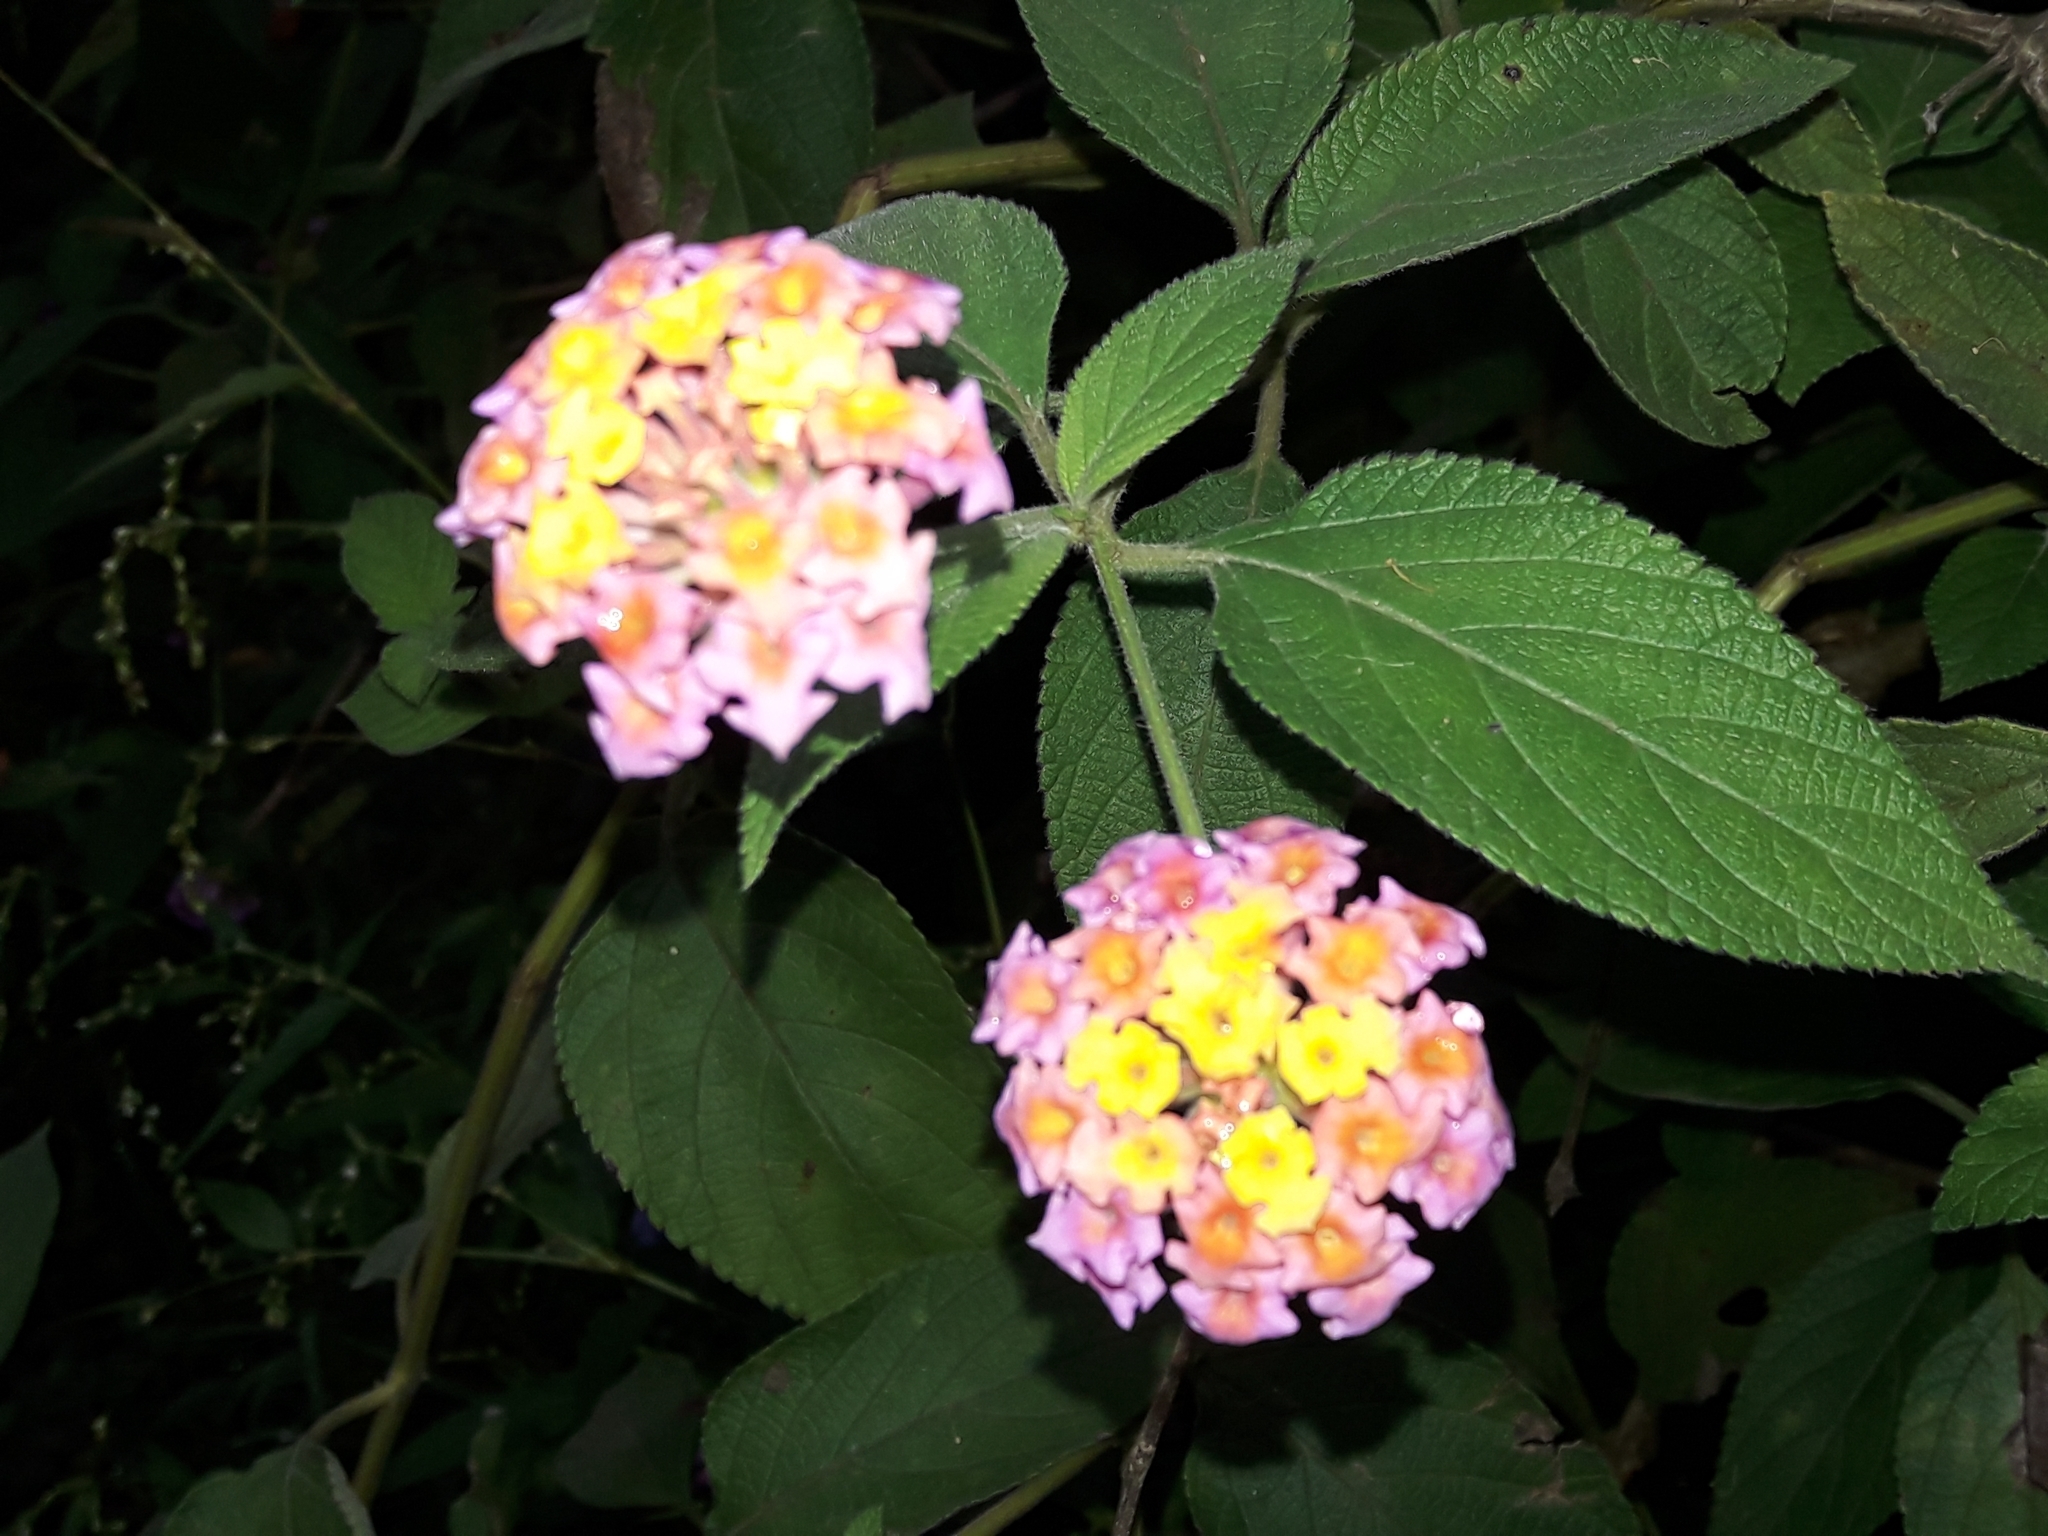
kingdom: Plantae
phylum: Tracheophyta
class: Magnoliopsida
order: Lamiales
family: Verbenaceae
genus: Lantana
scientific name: Lantana camara
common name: Lantana
